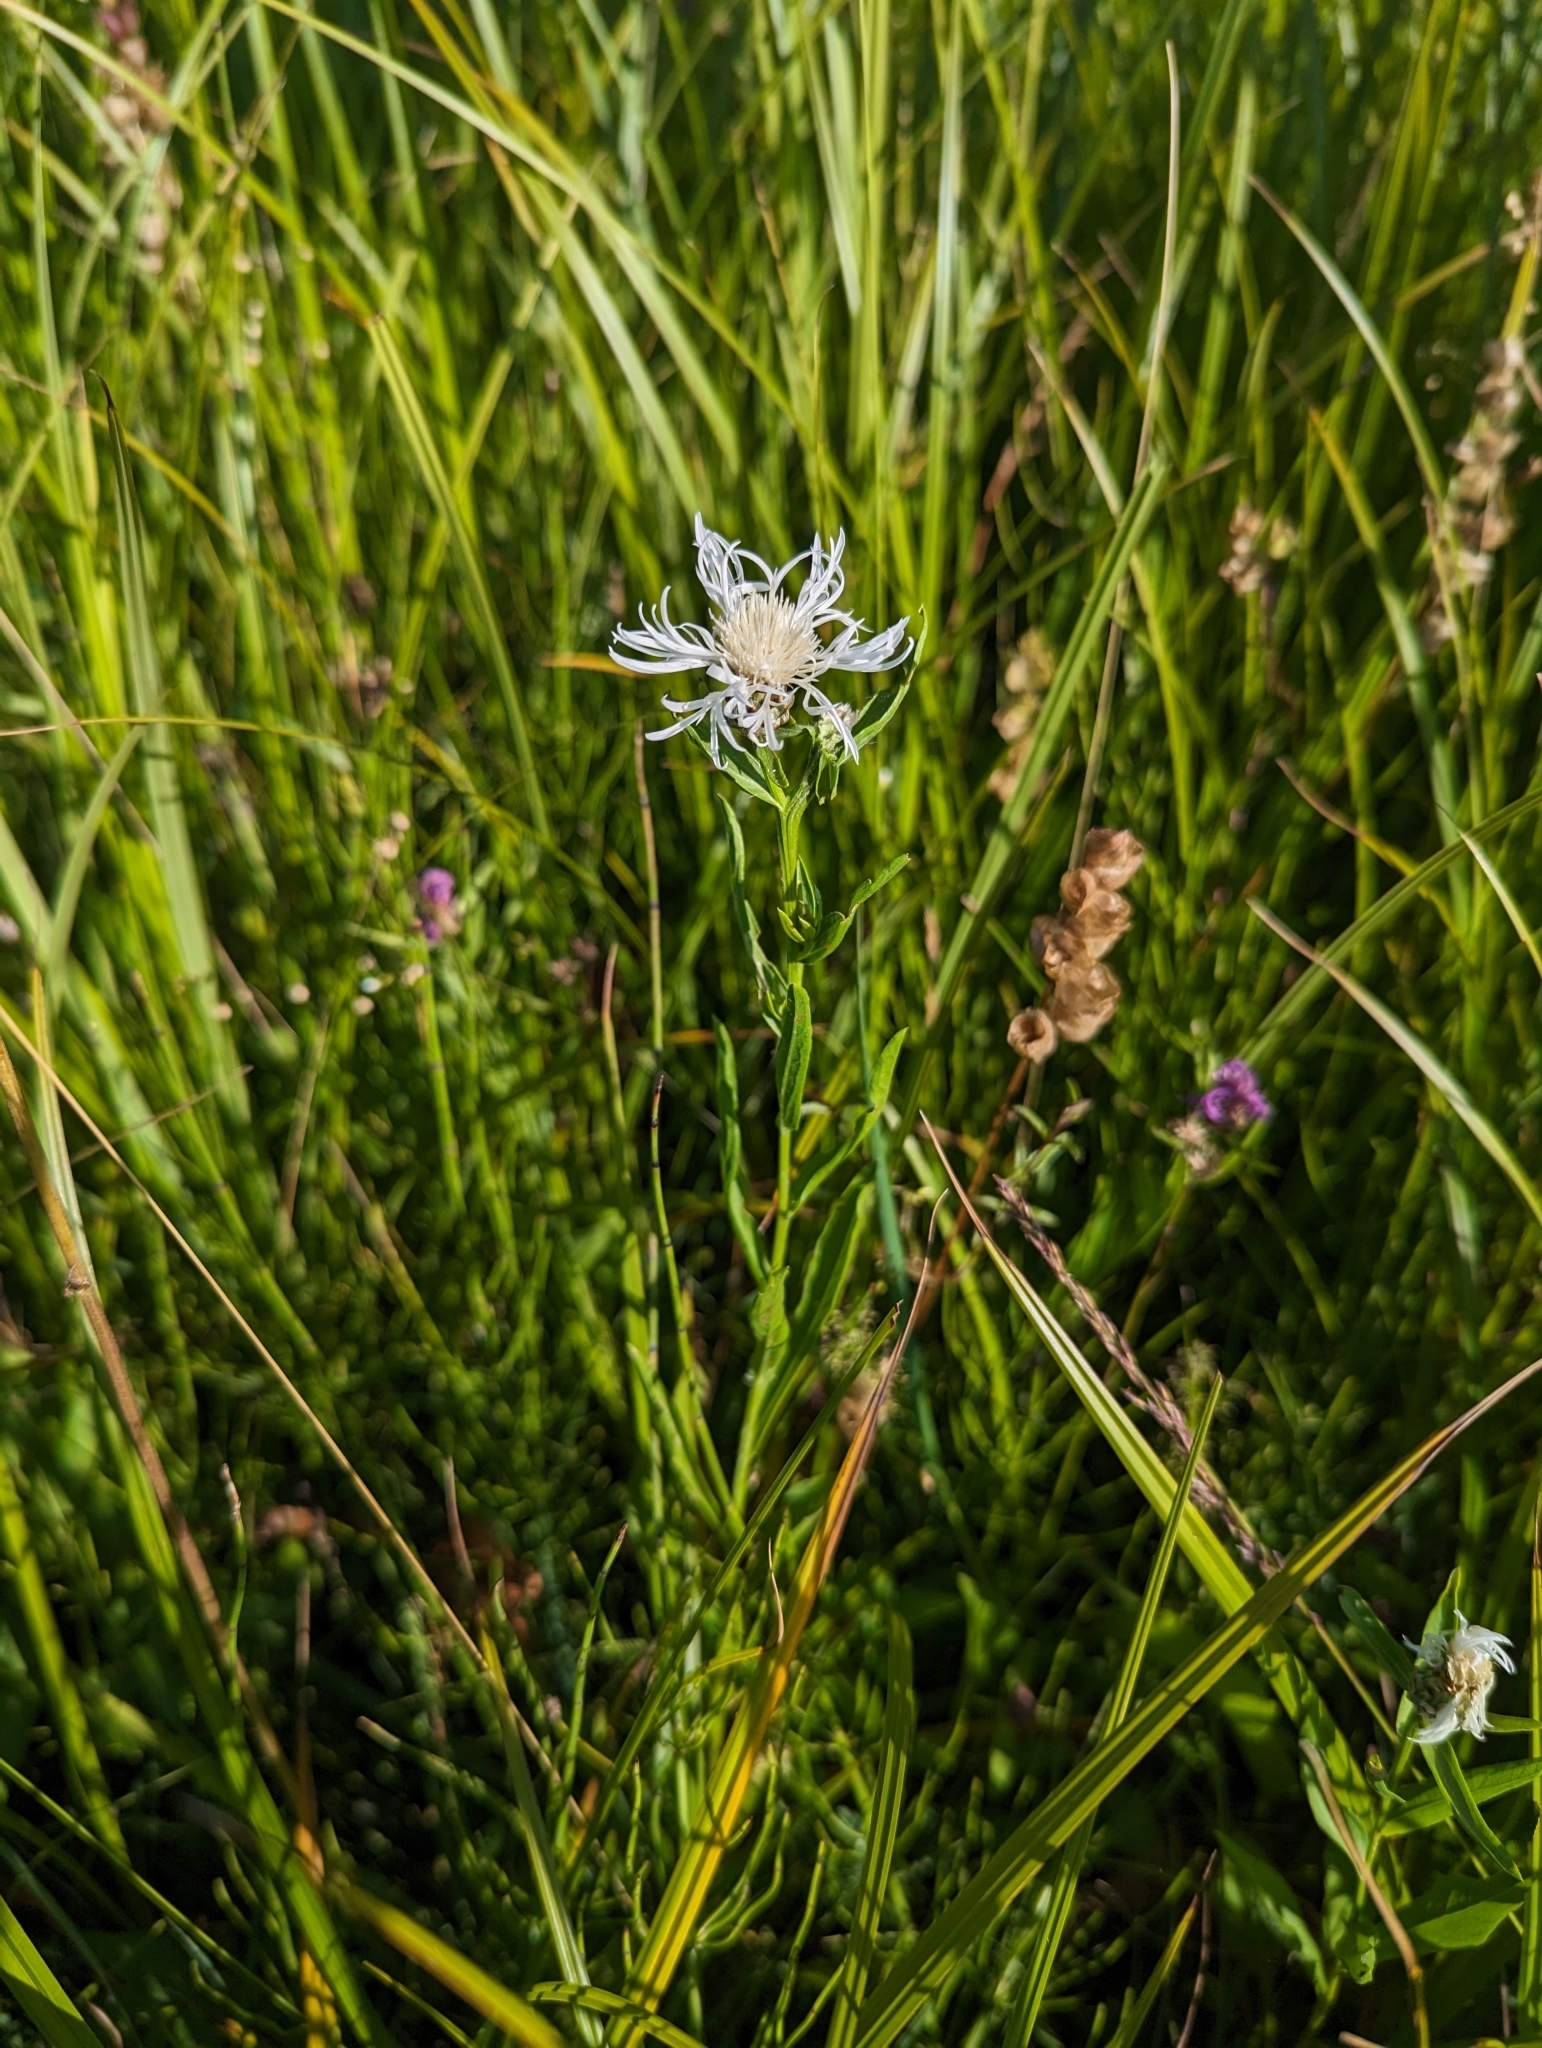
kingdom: Plantae
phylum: Tracheophyta
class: Magnoliopsida
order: Asterales
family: Asteraceae
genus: Centaurea
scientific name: Centaurea jacea
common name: Brown knapweed
